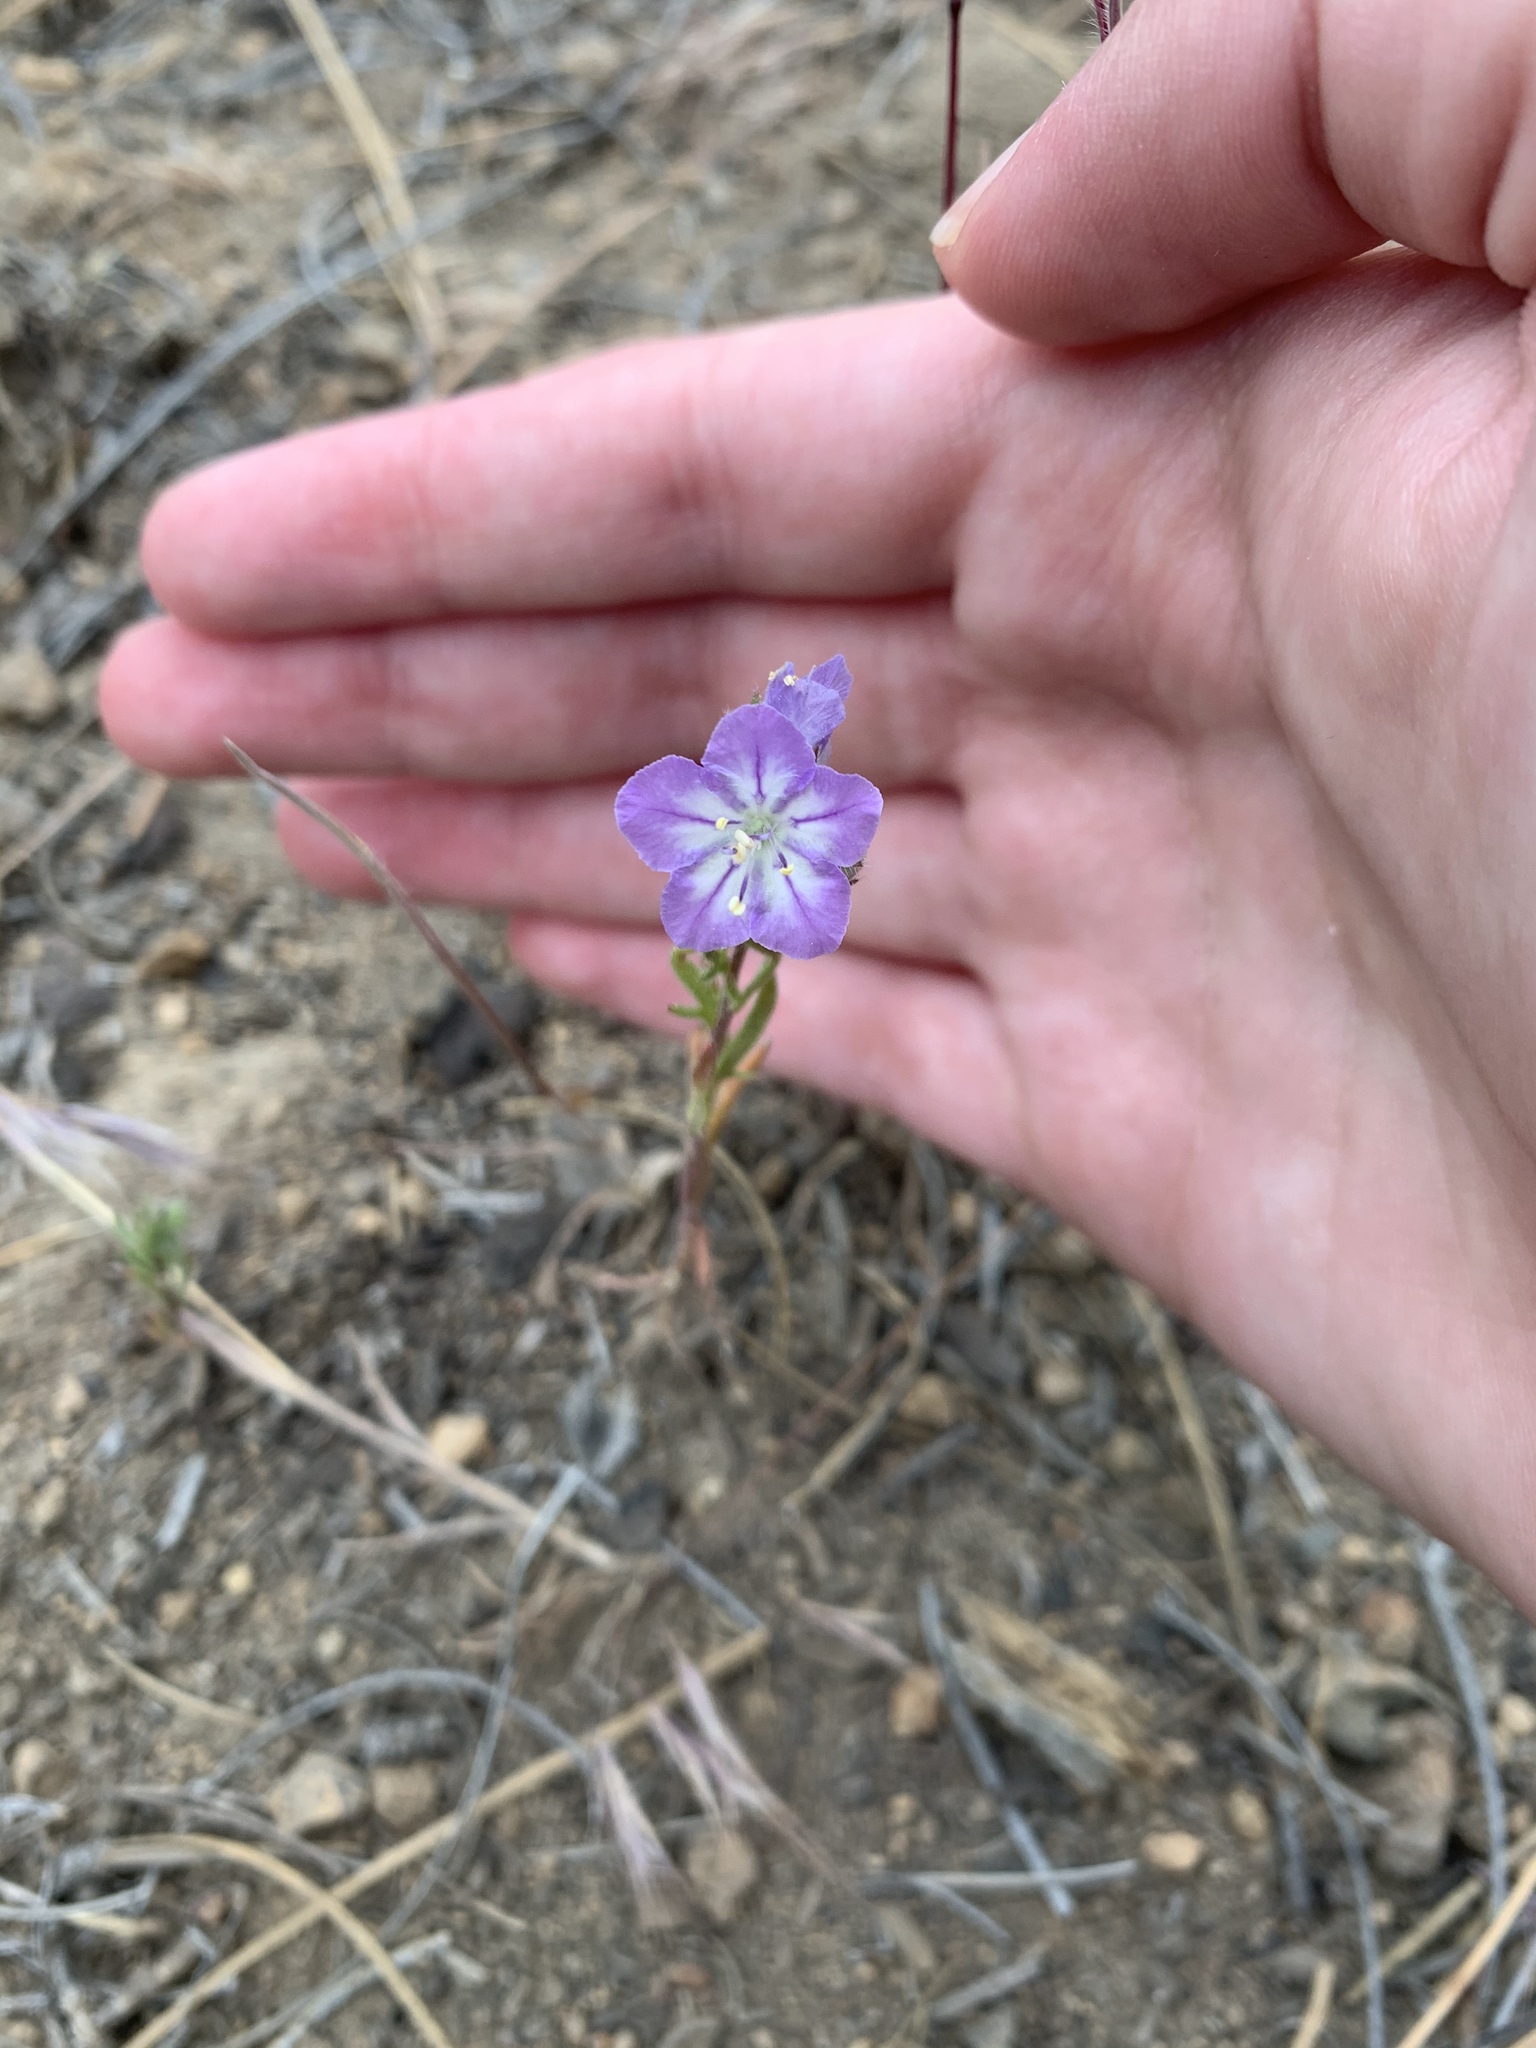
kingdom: Plantae
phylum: Tracheophyta
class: Magnoliopsida
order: Boraginales
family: Hydrophyllaceae
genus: Phacelia
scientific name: Phacelia linearis
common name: Linear-leaved phacelia
